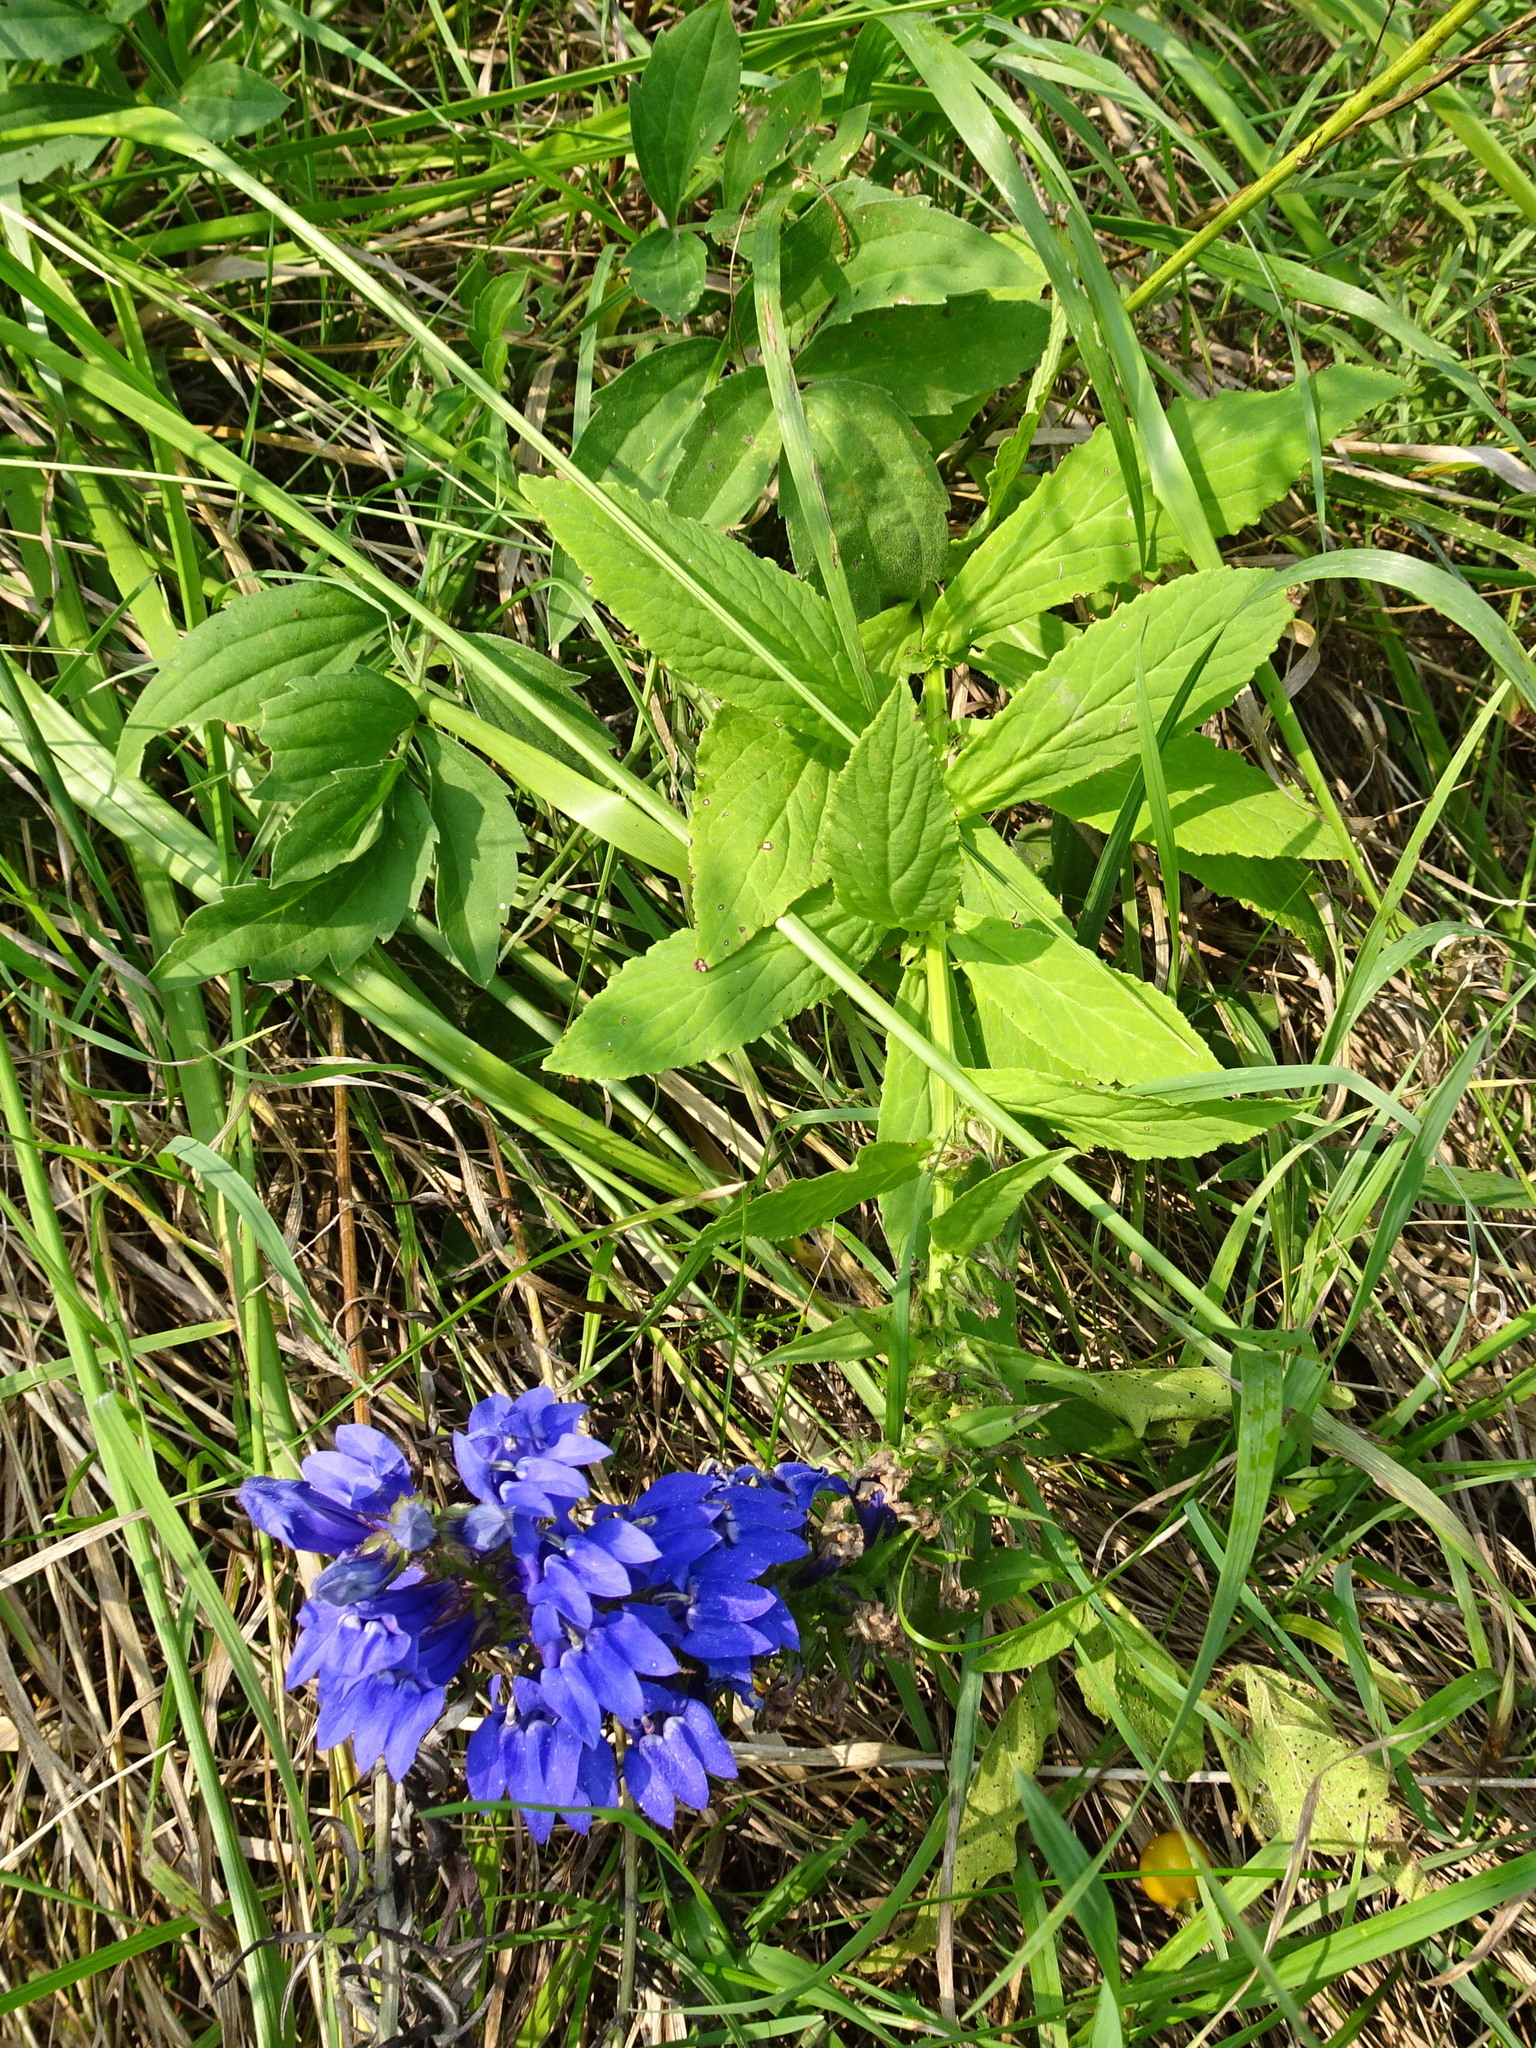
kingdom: Plantae
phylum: Tracheophyta
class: Magnoliopsida
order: Asterales
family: Campanulaceae
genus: Lobelia
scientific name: Lobelia siphilitica
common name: Great lobelia
